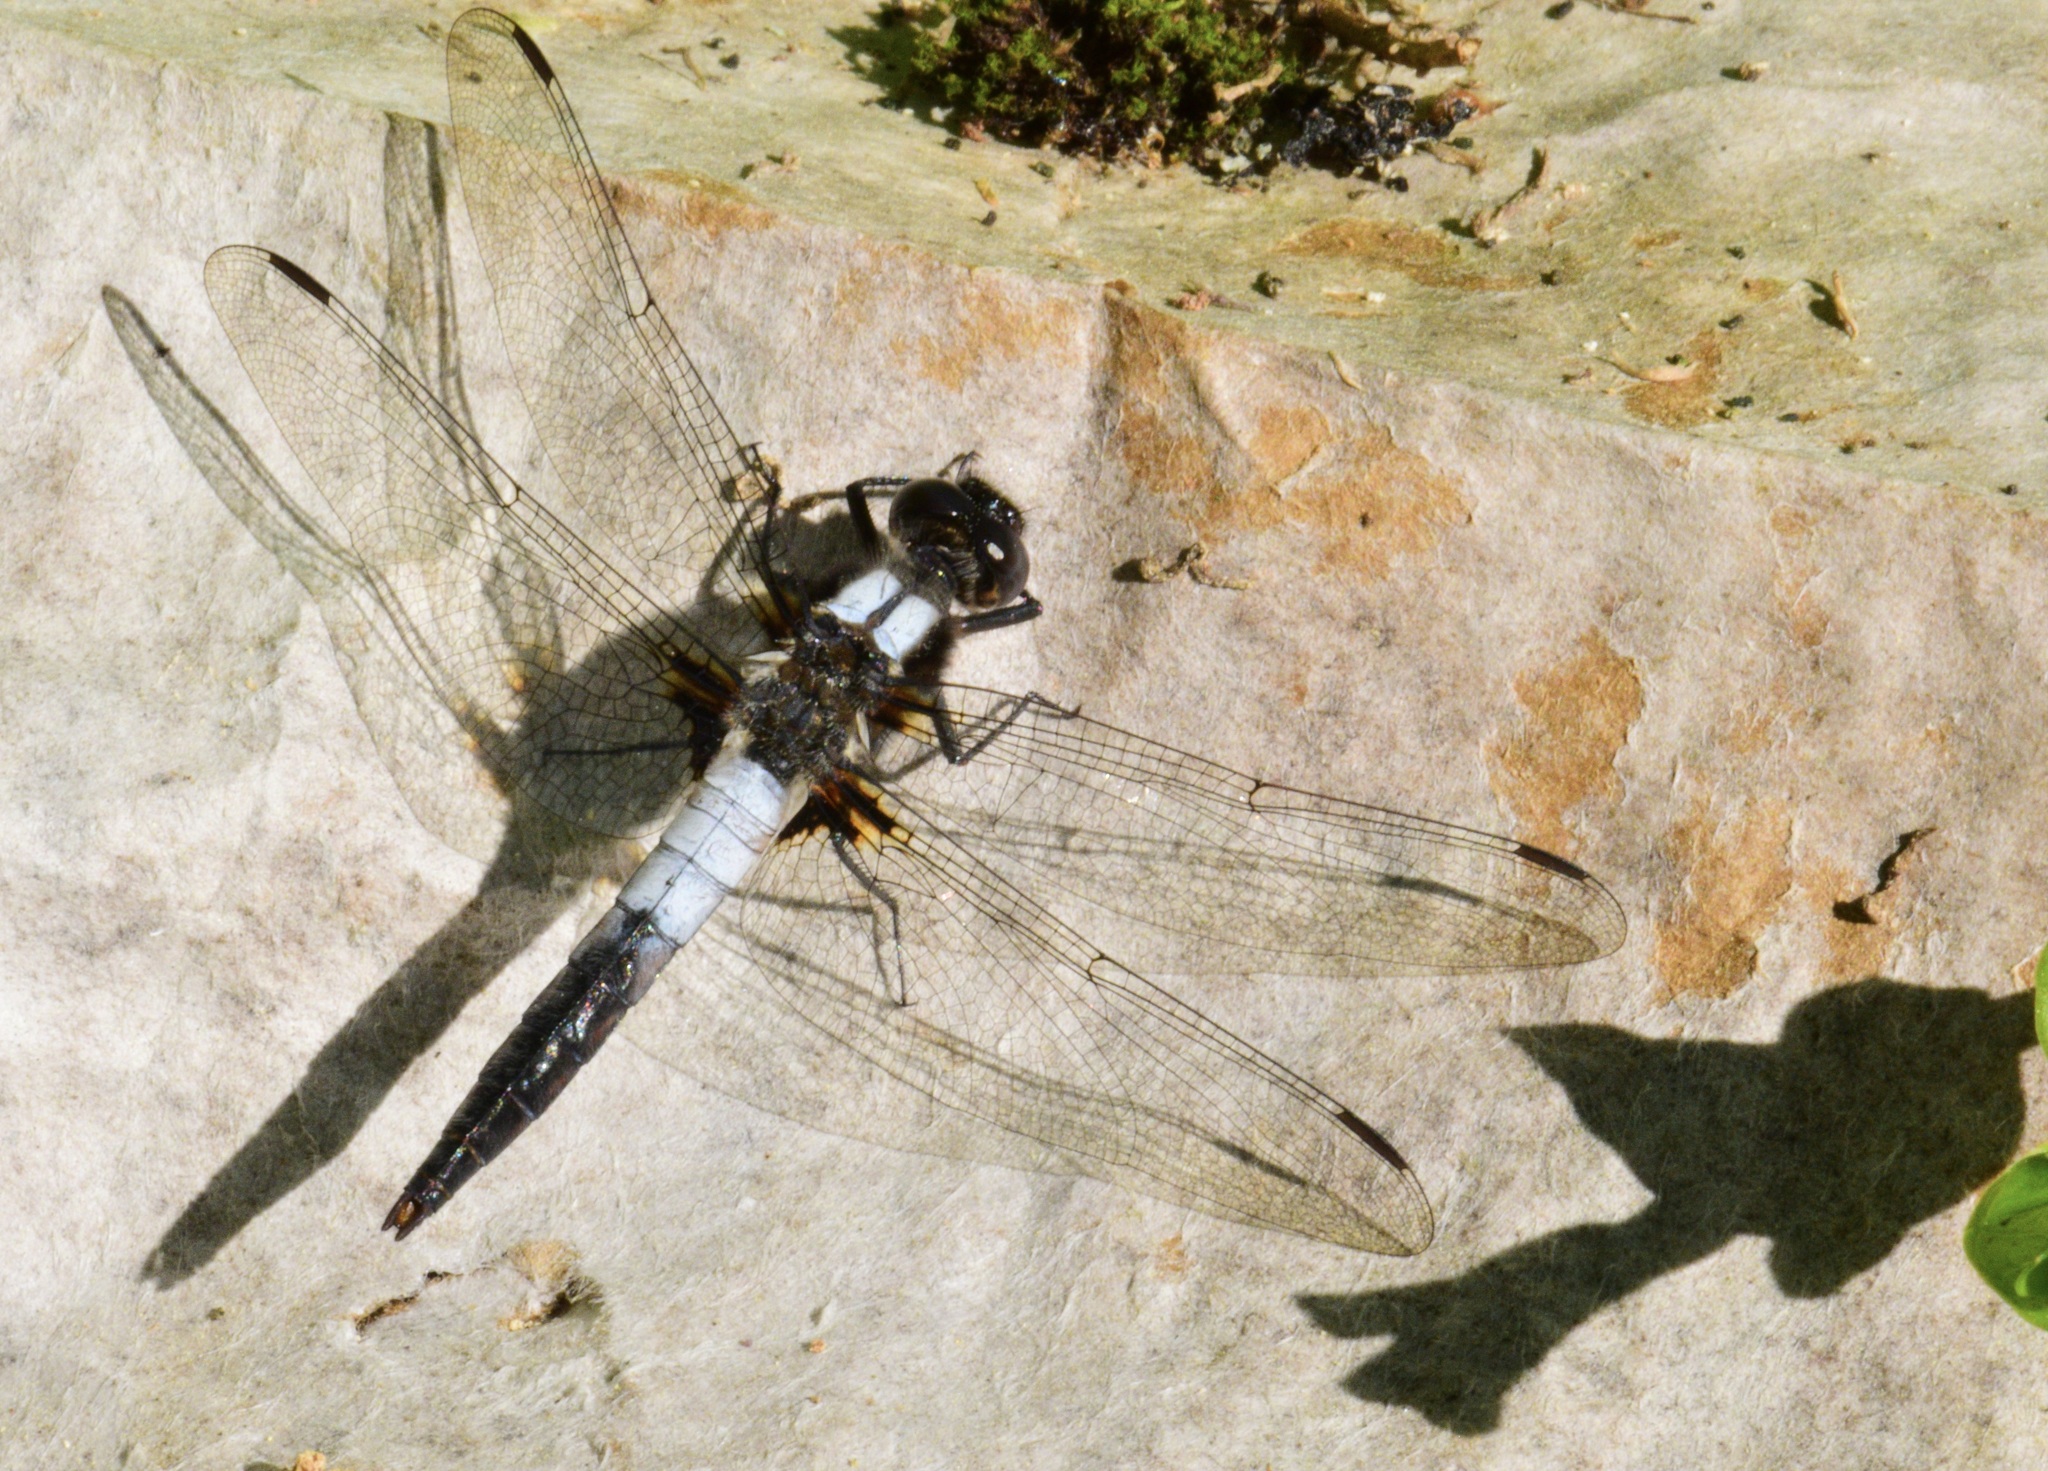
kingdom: Animalia
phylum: Arthropoda
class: Insecta
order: Odonata
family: Libellulidae
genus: Ladona
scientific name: Ladona julia
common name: Chalk-fronted corporal
